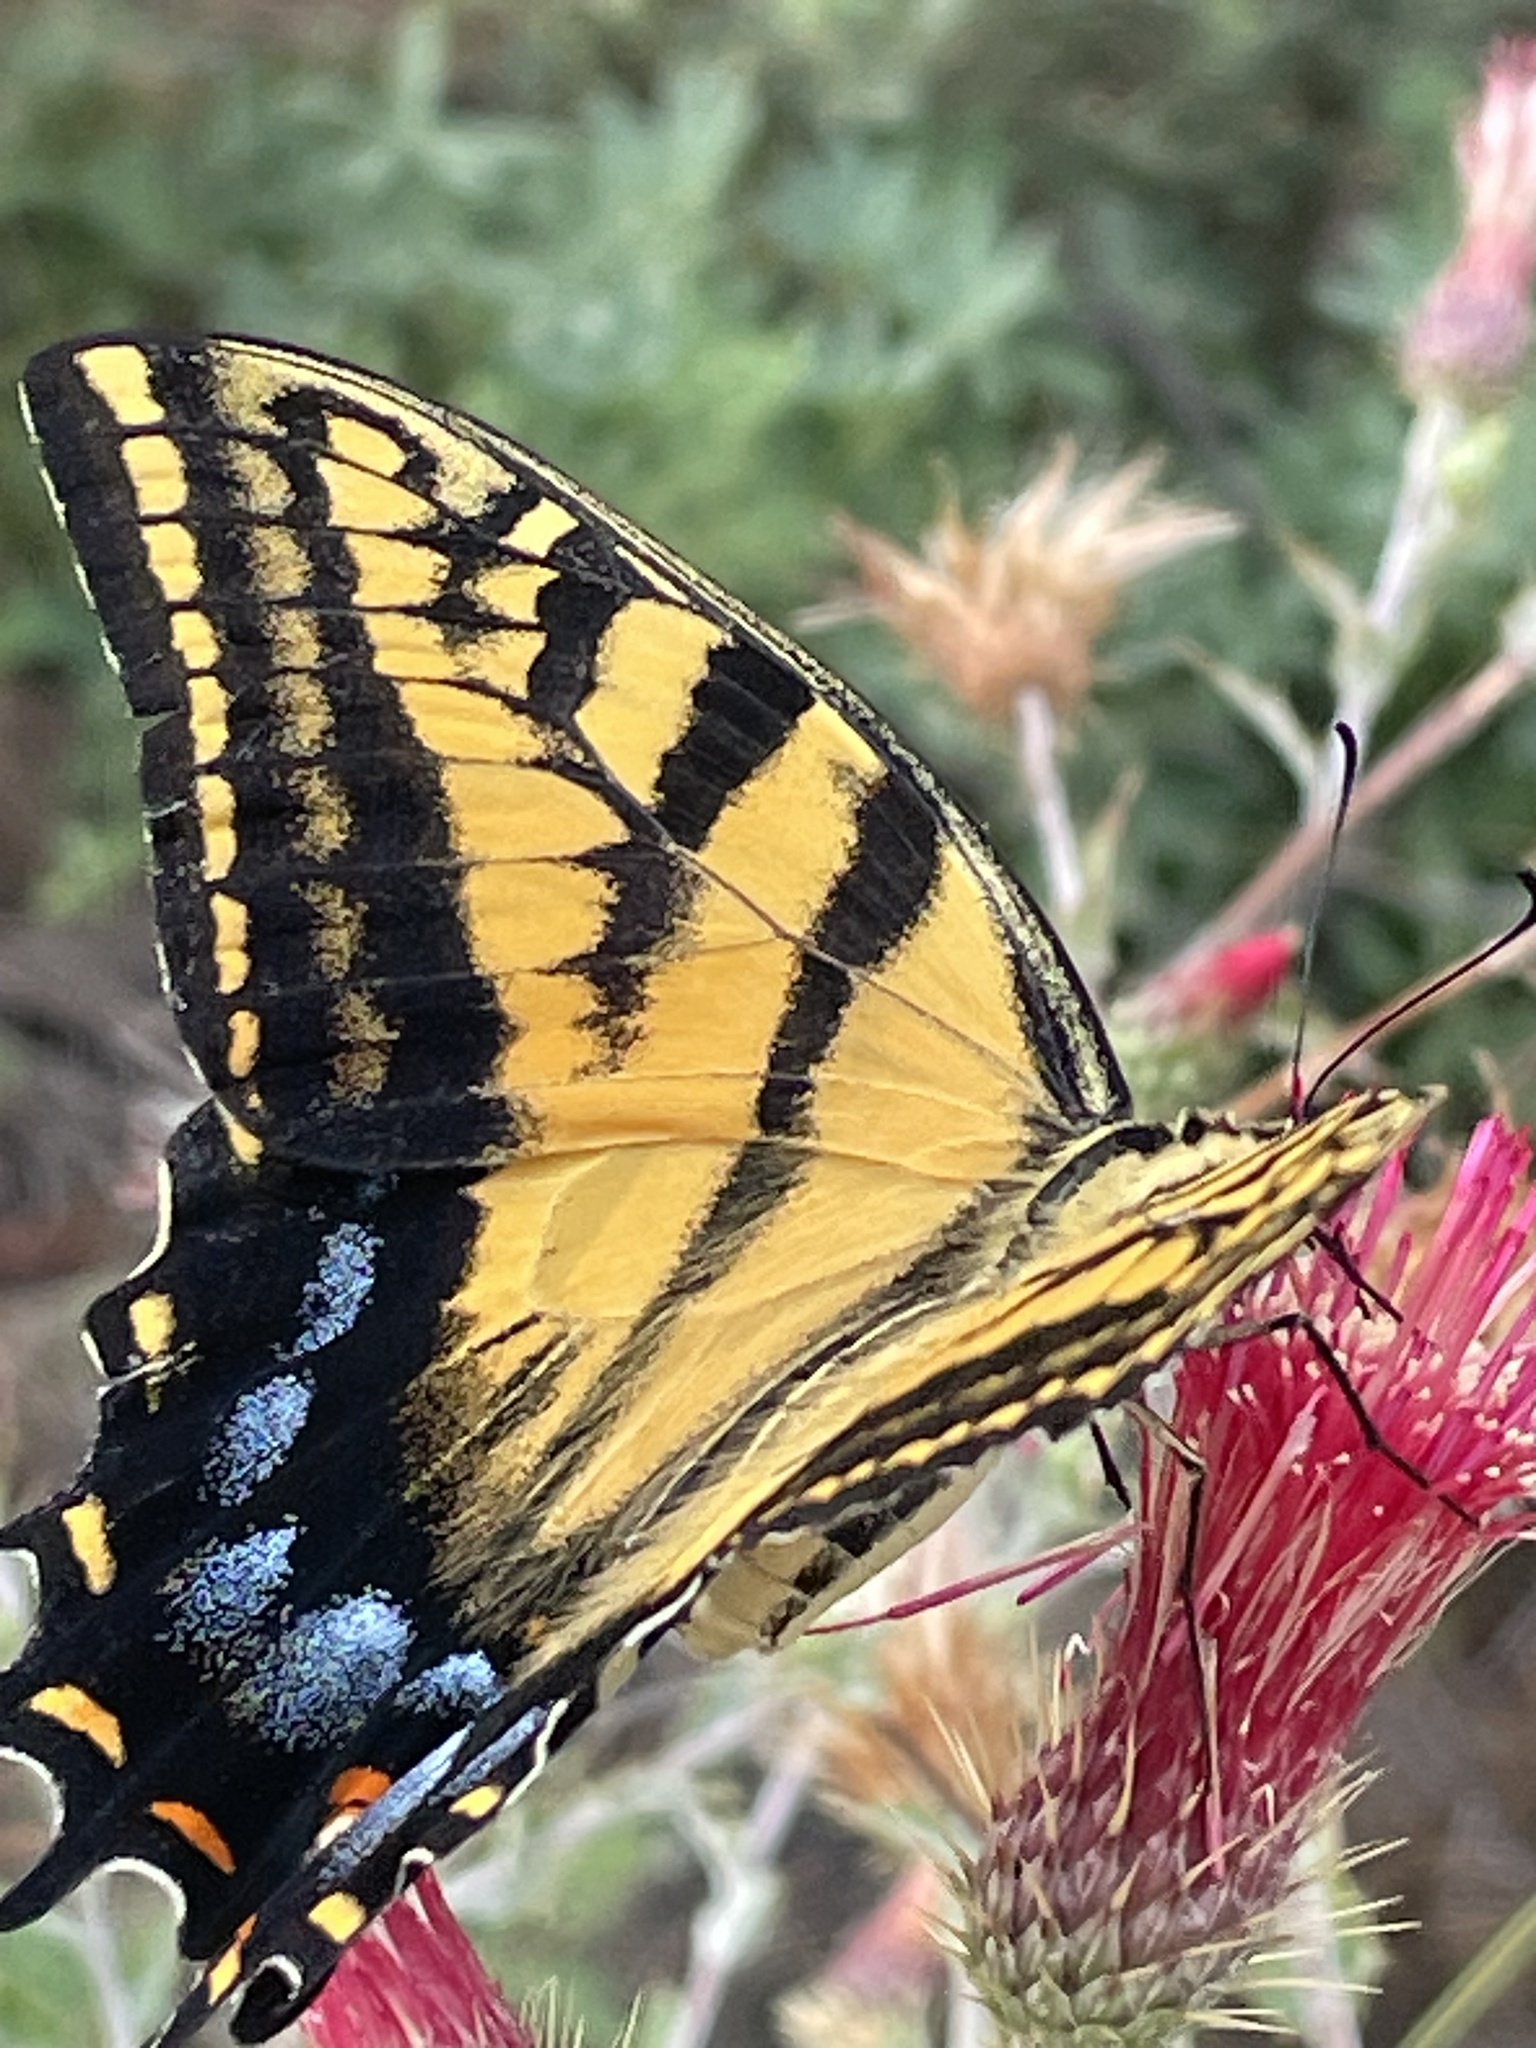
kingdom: Animalia
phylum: Arthropoda
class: Insecta
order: Lepidoptera
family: Papilionidae
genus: Papilio
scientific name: Papilio multicaudata
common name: Two-tailed tiger swallowtail
